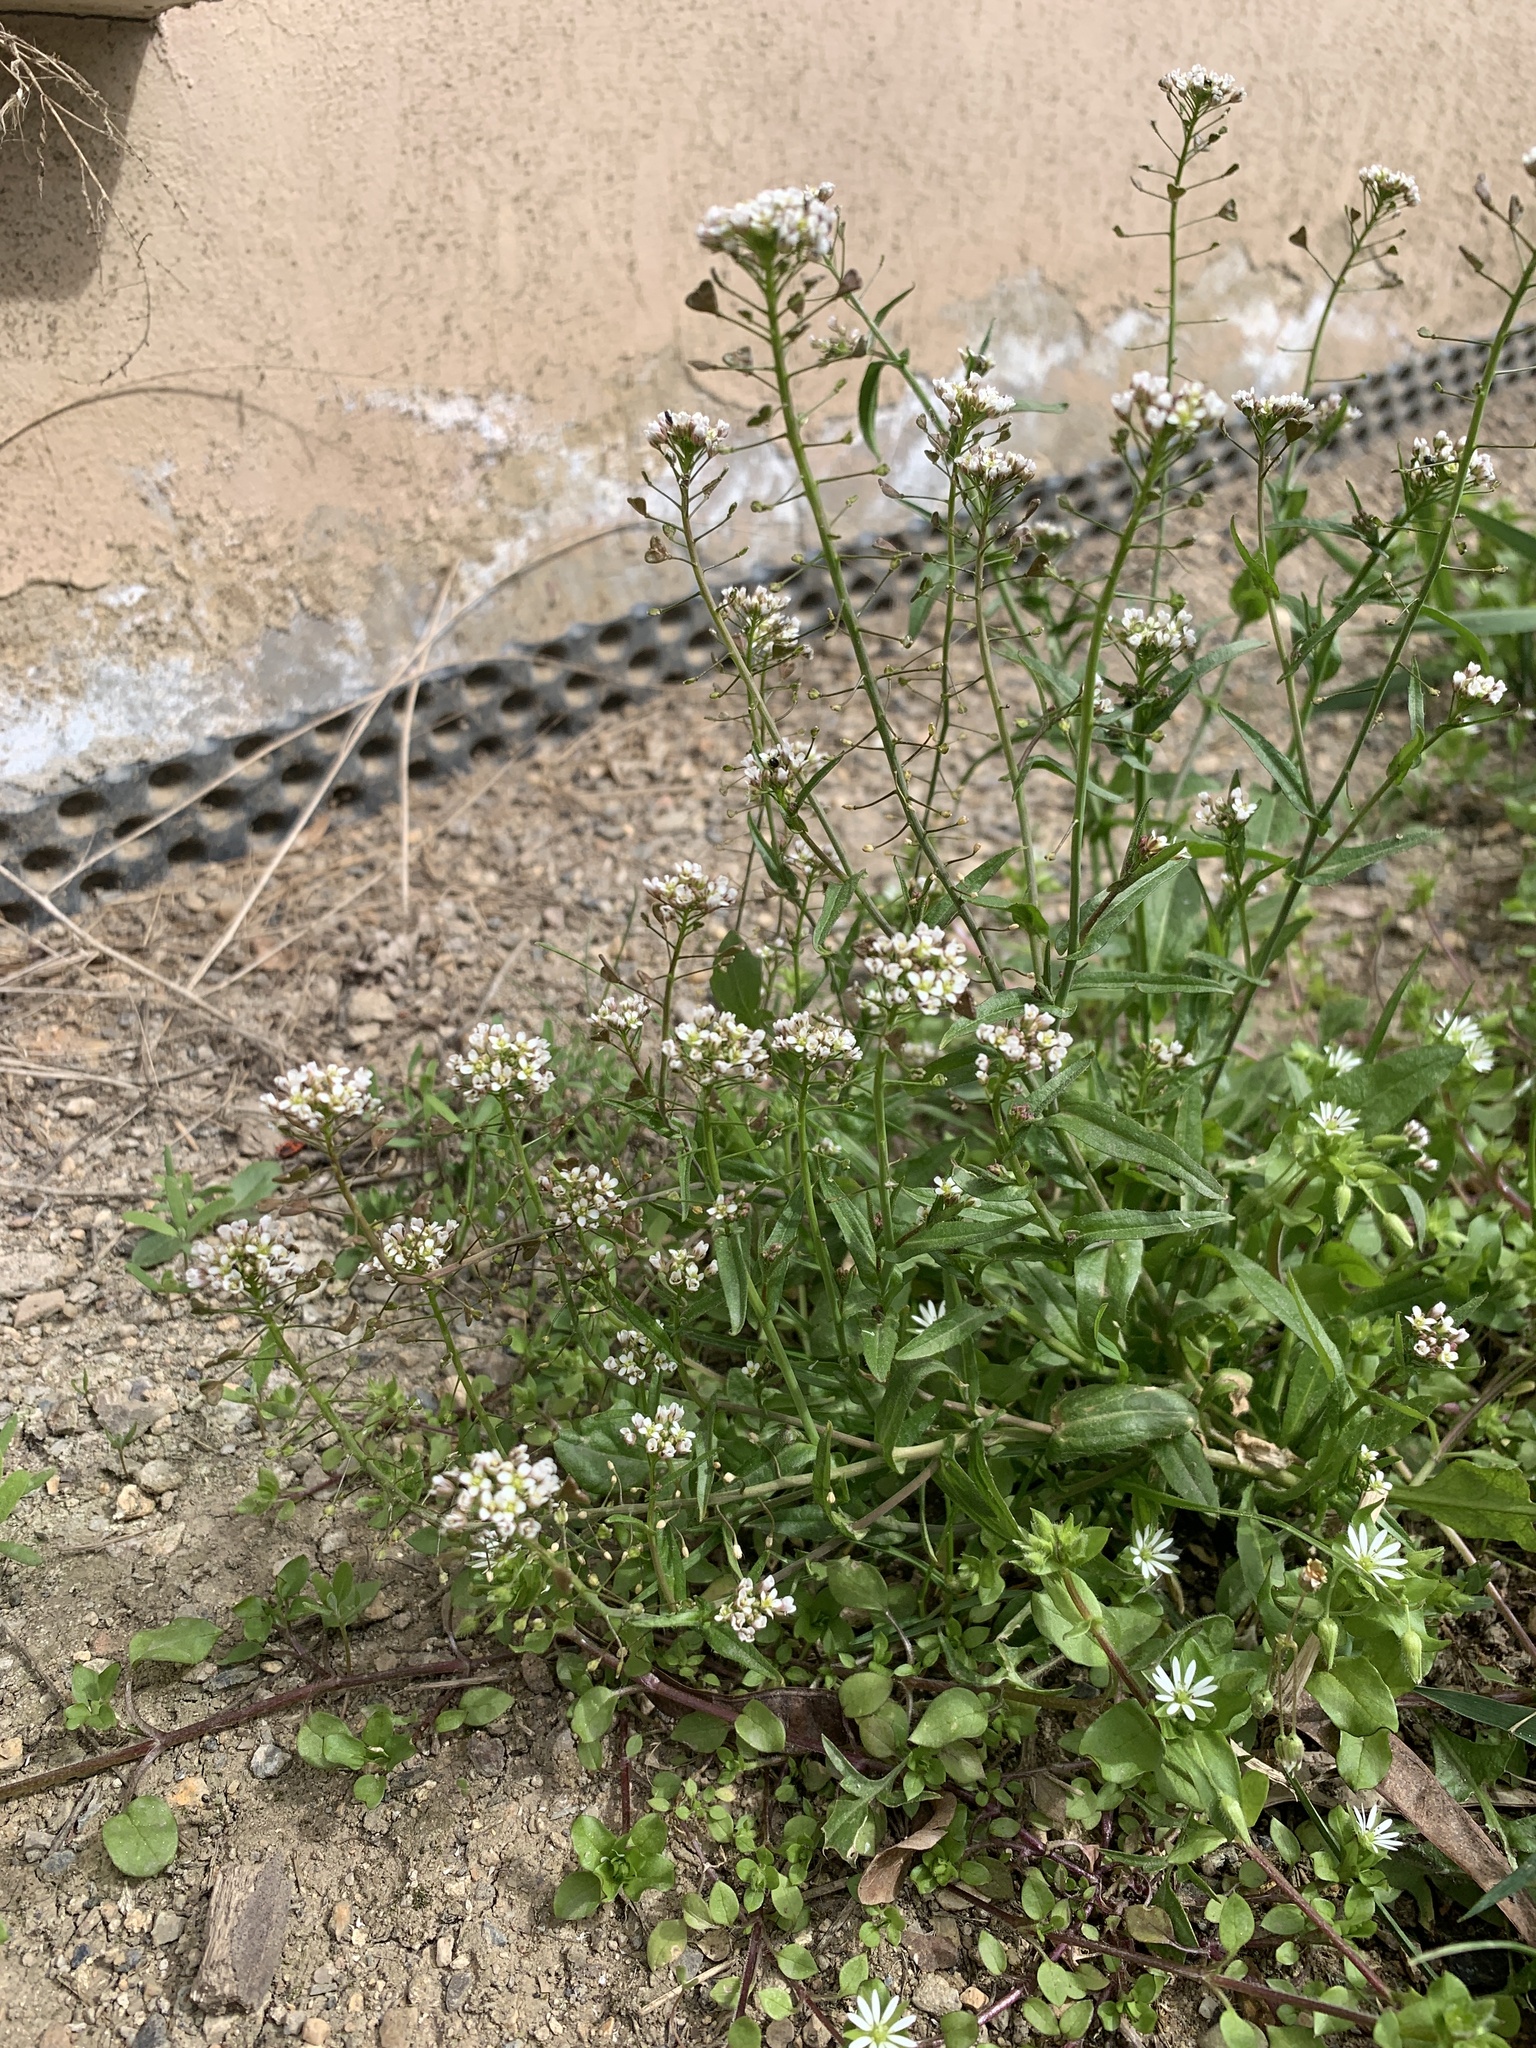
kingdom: Plantae
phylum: Tracheophyta
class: Magnoliopsida
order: Brassicales
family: Brassicaceae
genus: Capsella
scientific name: Capsella bursa-pastoris
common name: Shepherd's purse
